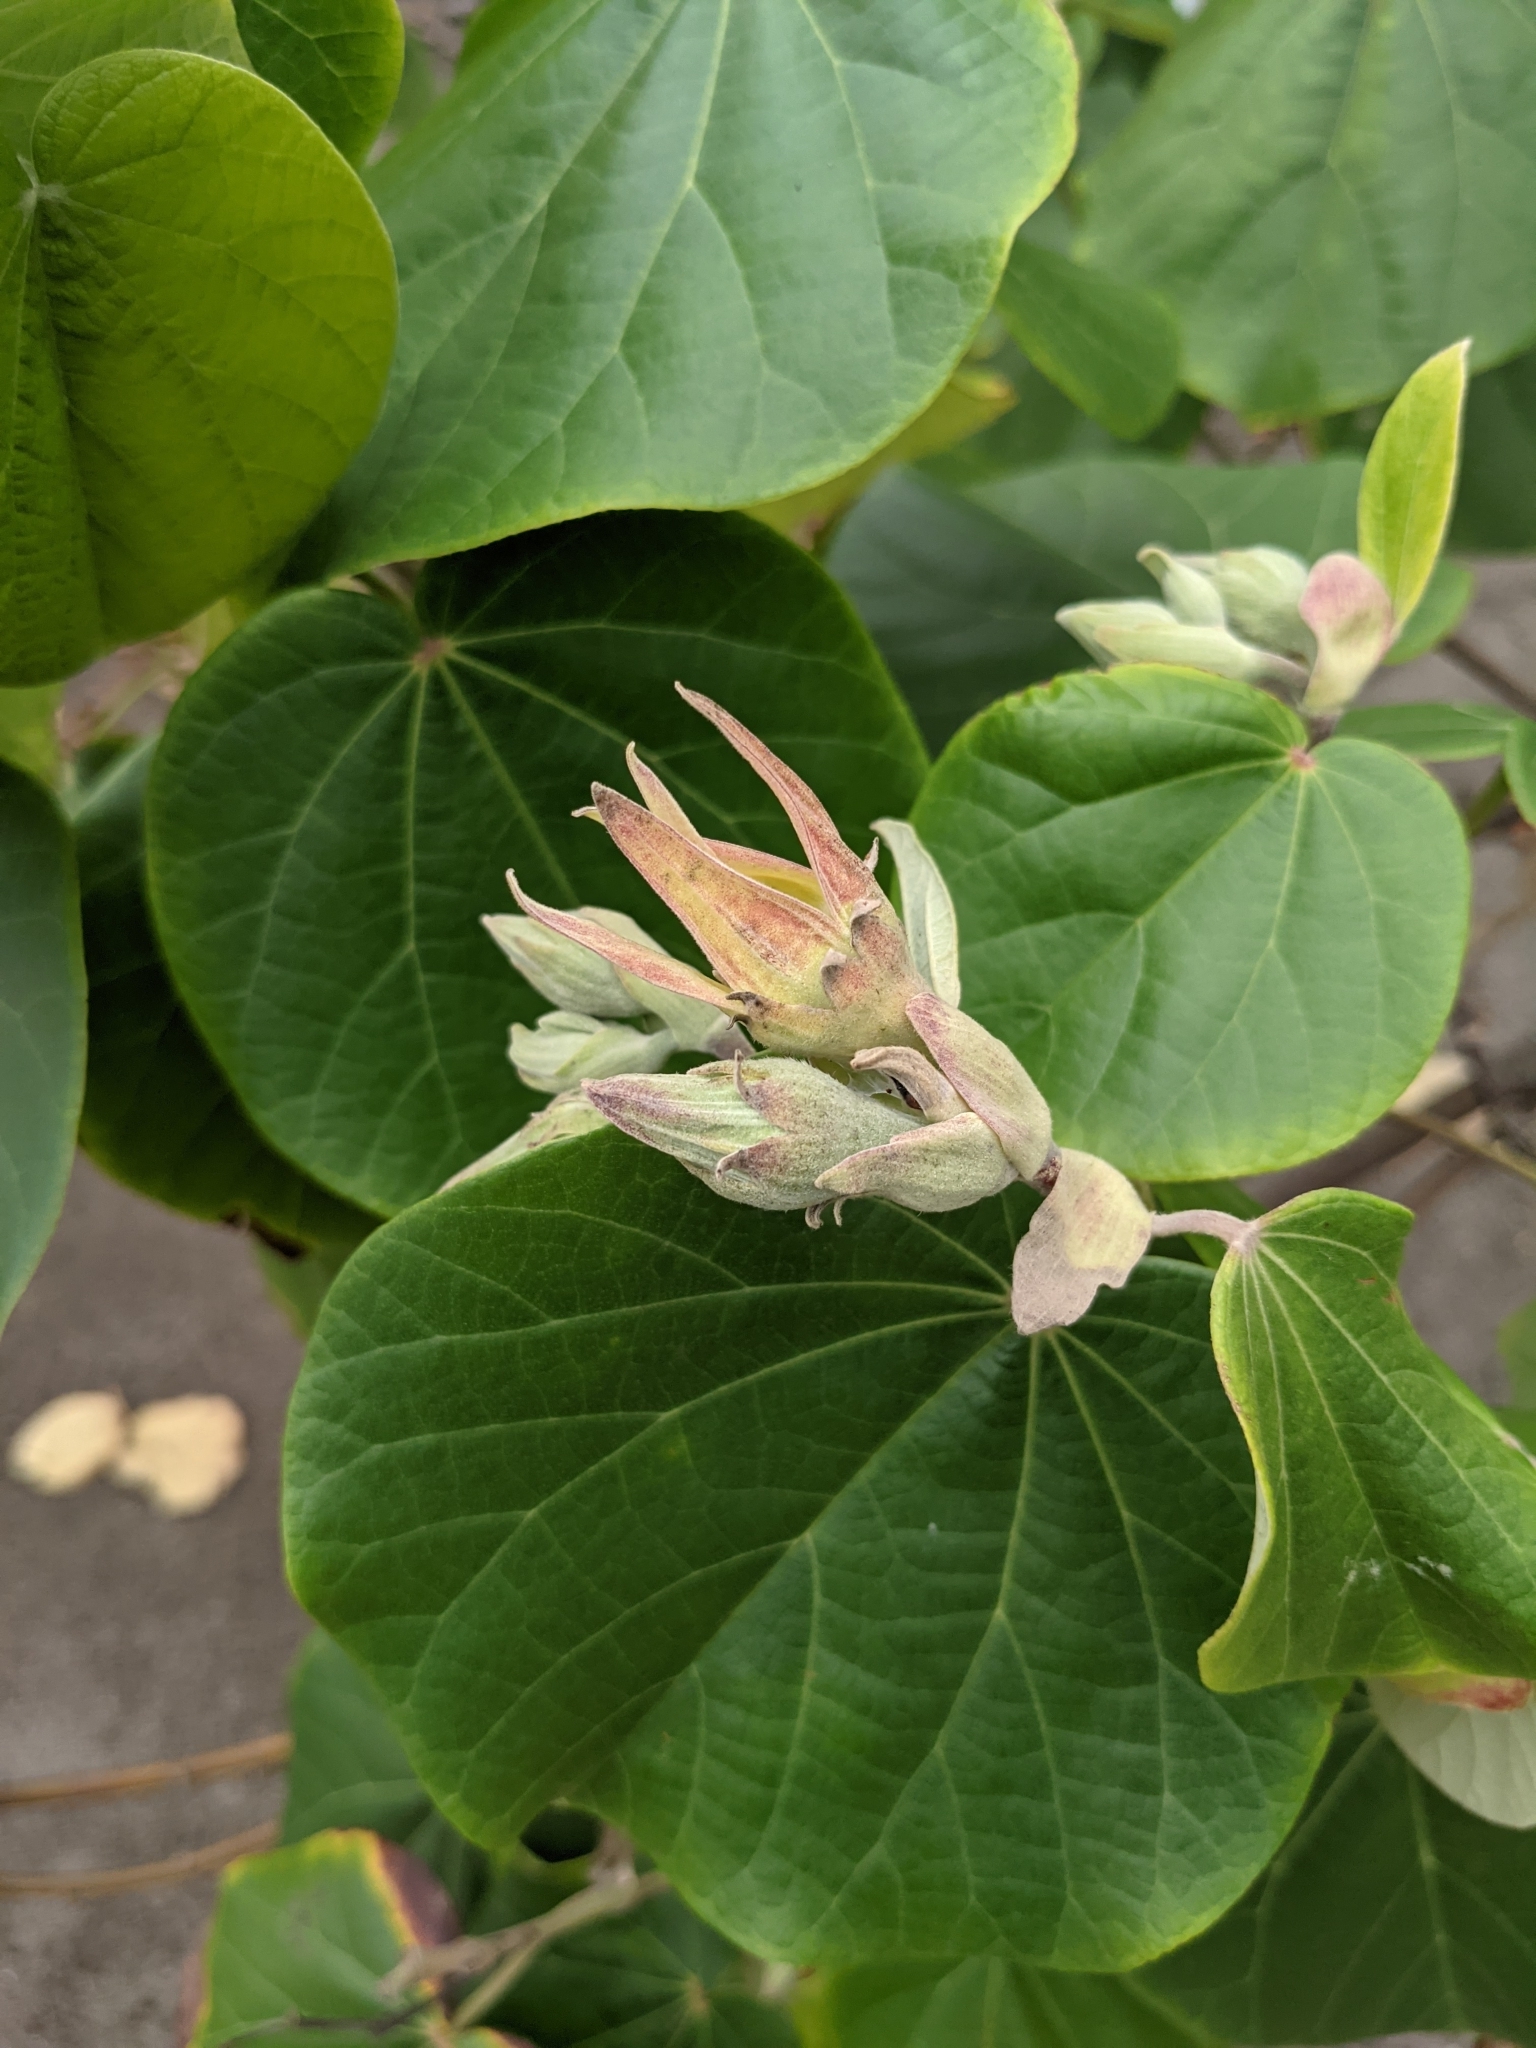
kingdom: Plantae
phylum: Tracheophyta
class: Magnoliopsida
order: Malvales
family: Malvaceae
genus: Talipariti
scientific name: Talipariti pernambucense
